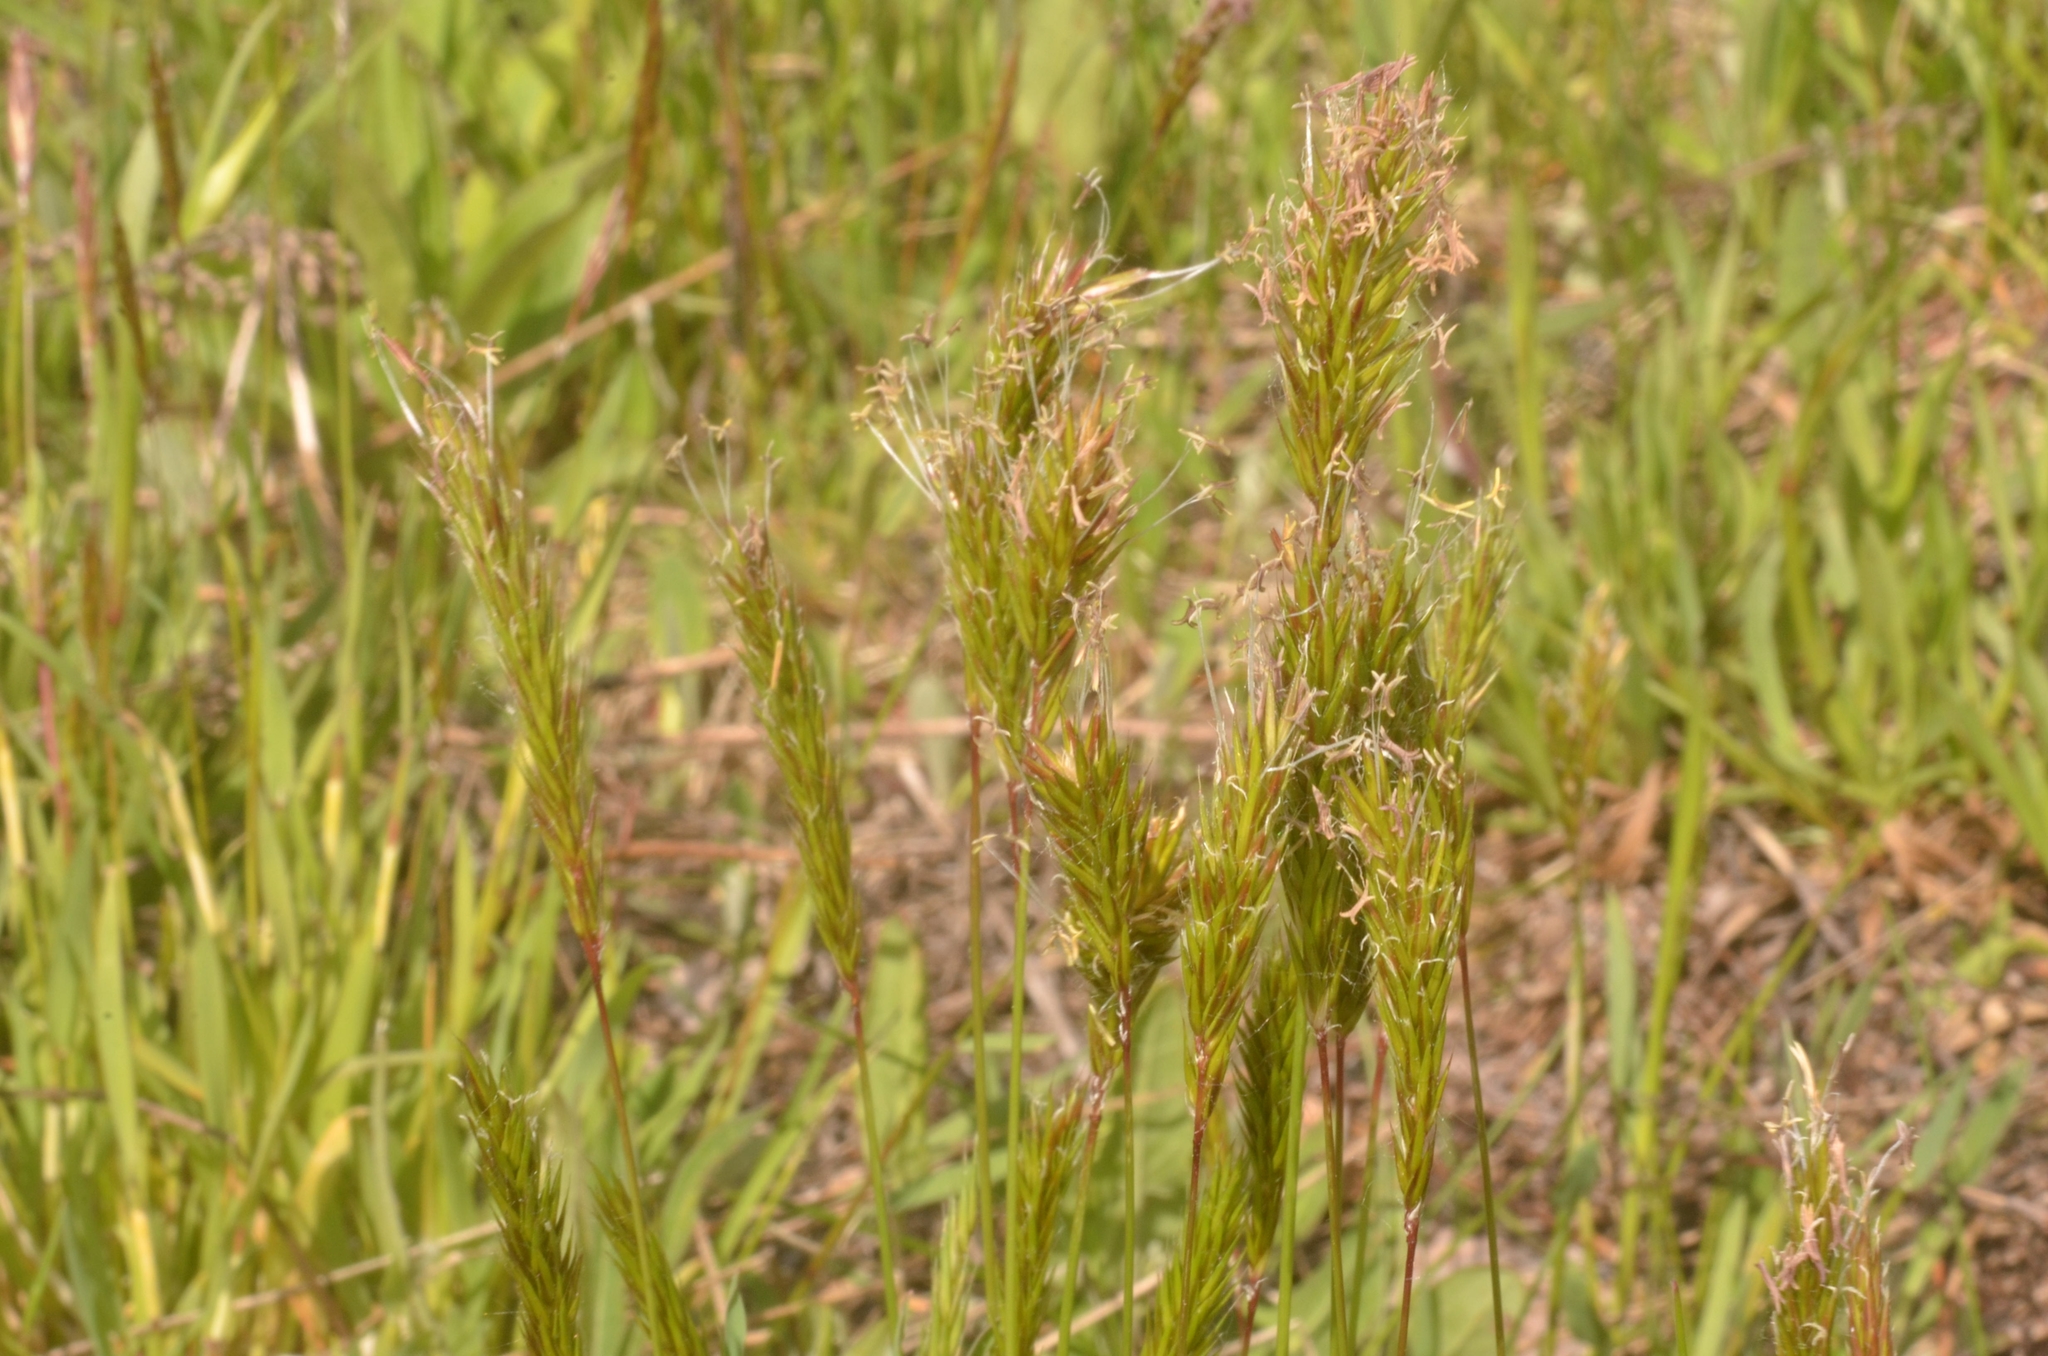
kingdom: Plantae
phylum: Tracheophyta
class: Liliopsida
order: Poales
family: Poaceae
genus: Anthoxanthum
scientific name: Anthoxanthum odoratum
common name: Sweet vernalgrass
